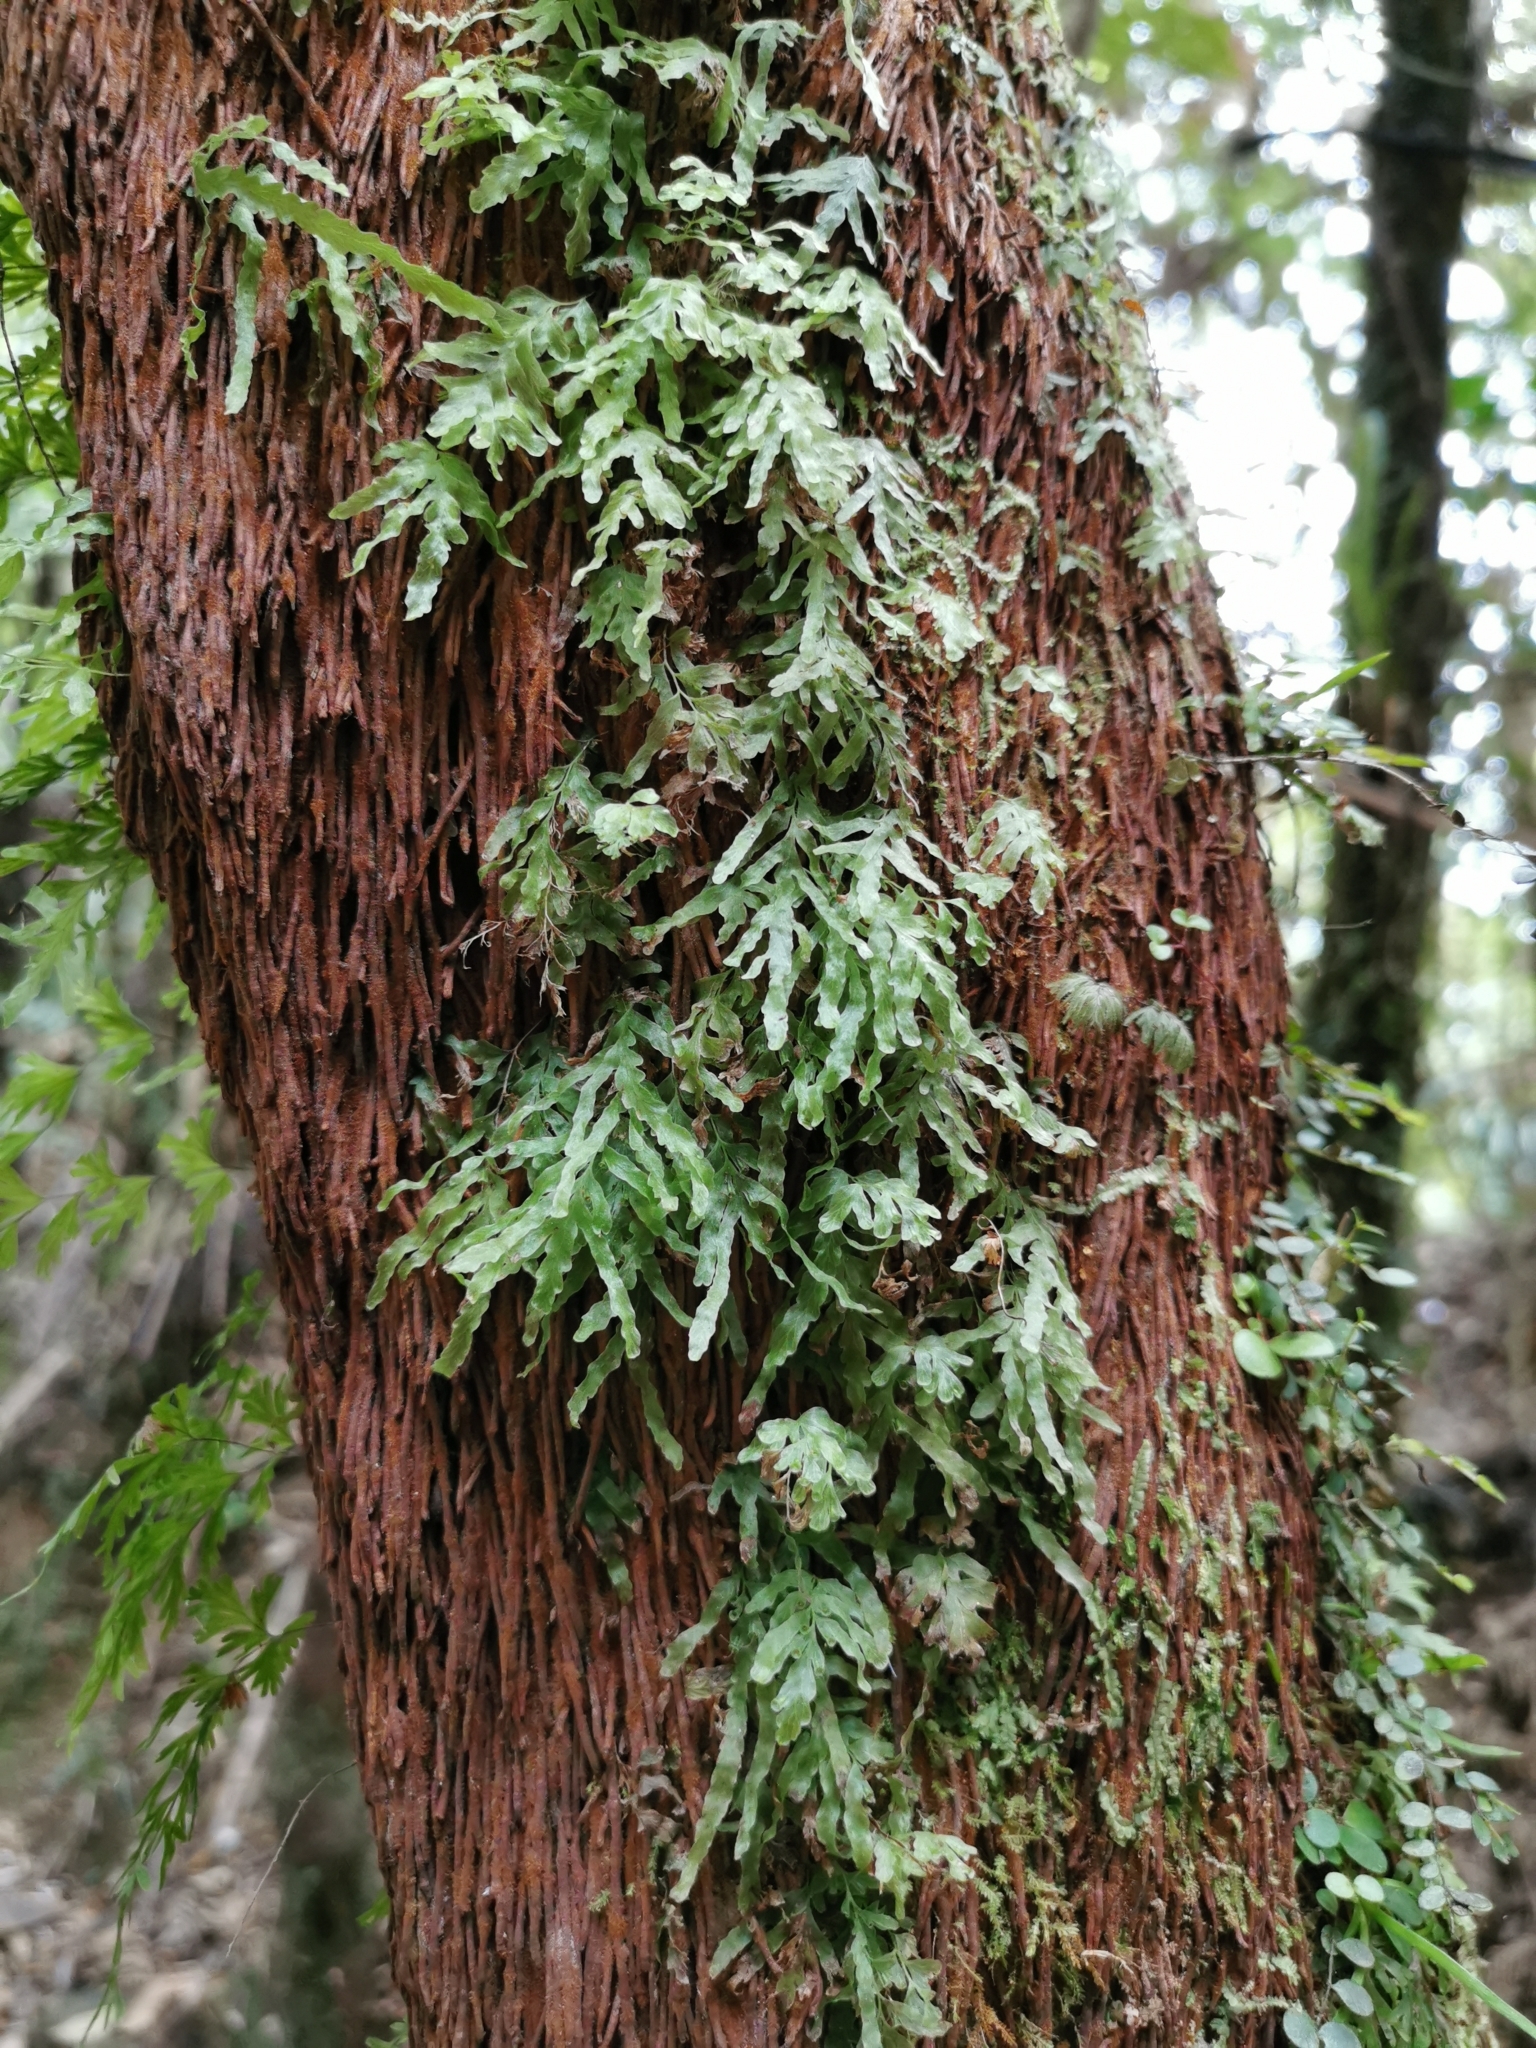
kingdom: Plantae
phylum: Tracheophyta
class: Polypodiopsida
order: Hymenophyllales
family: Hymenophyllaceae
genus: Polyphlebium
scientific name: Polyphlebium venosum
